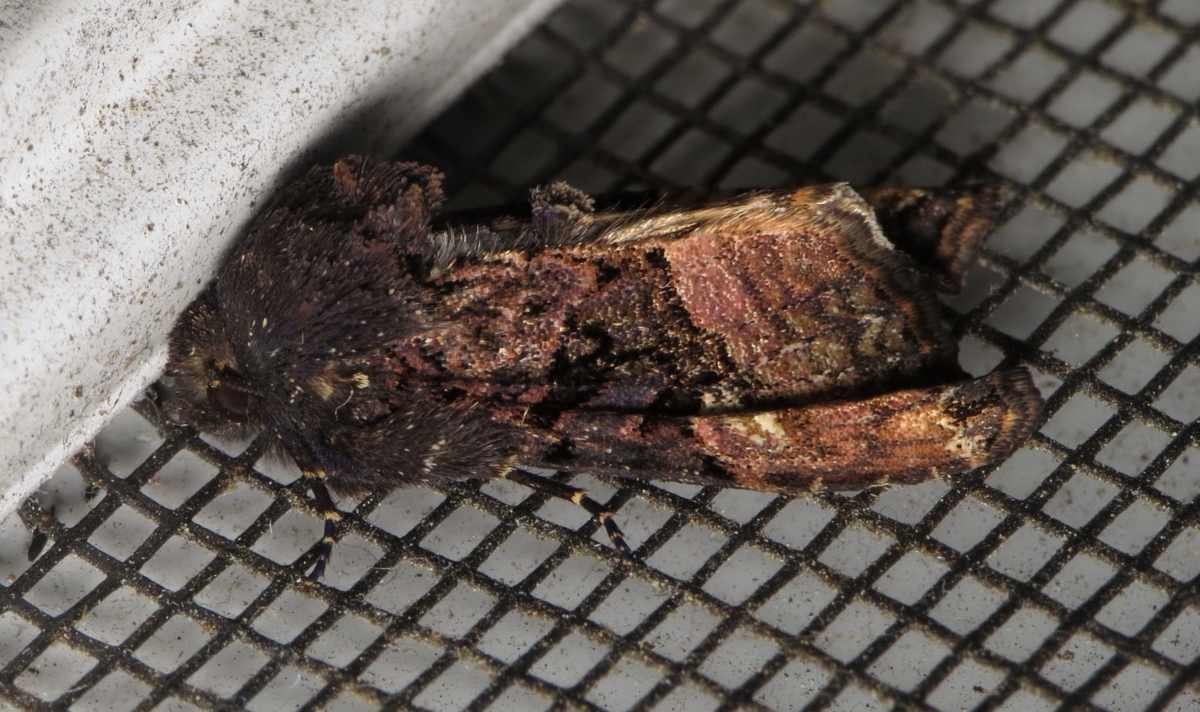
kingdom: Animalia
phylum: Arthropoda
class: Insecta
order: Lepidoptera
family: Noctuidae
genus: Euplexia
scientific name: Euplexia benesimilis
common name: American angle shades
